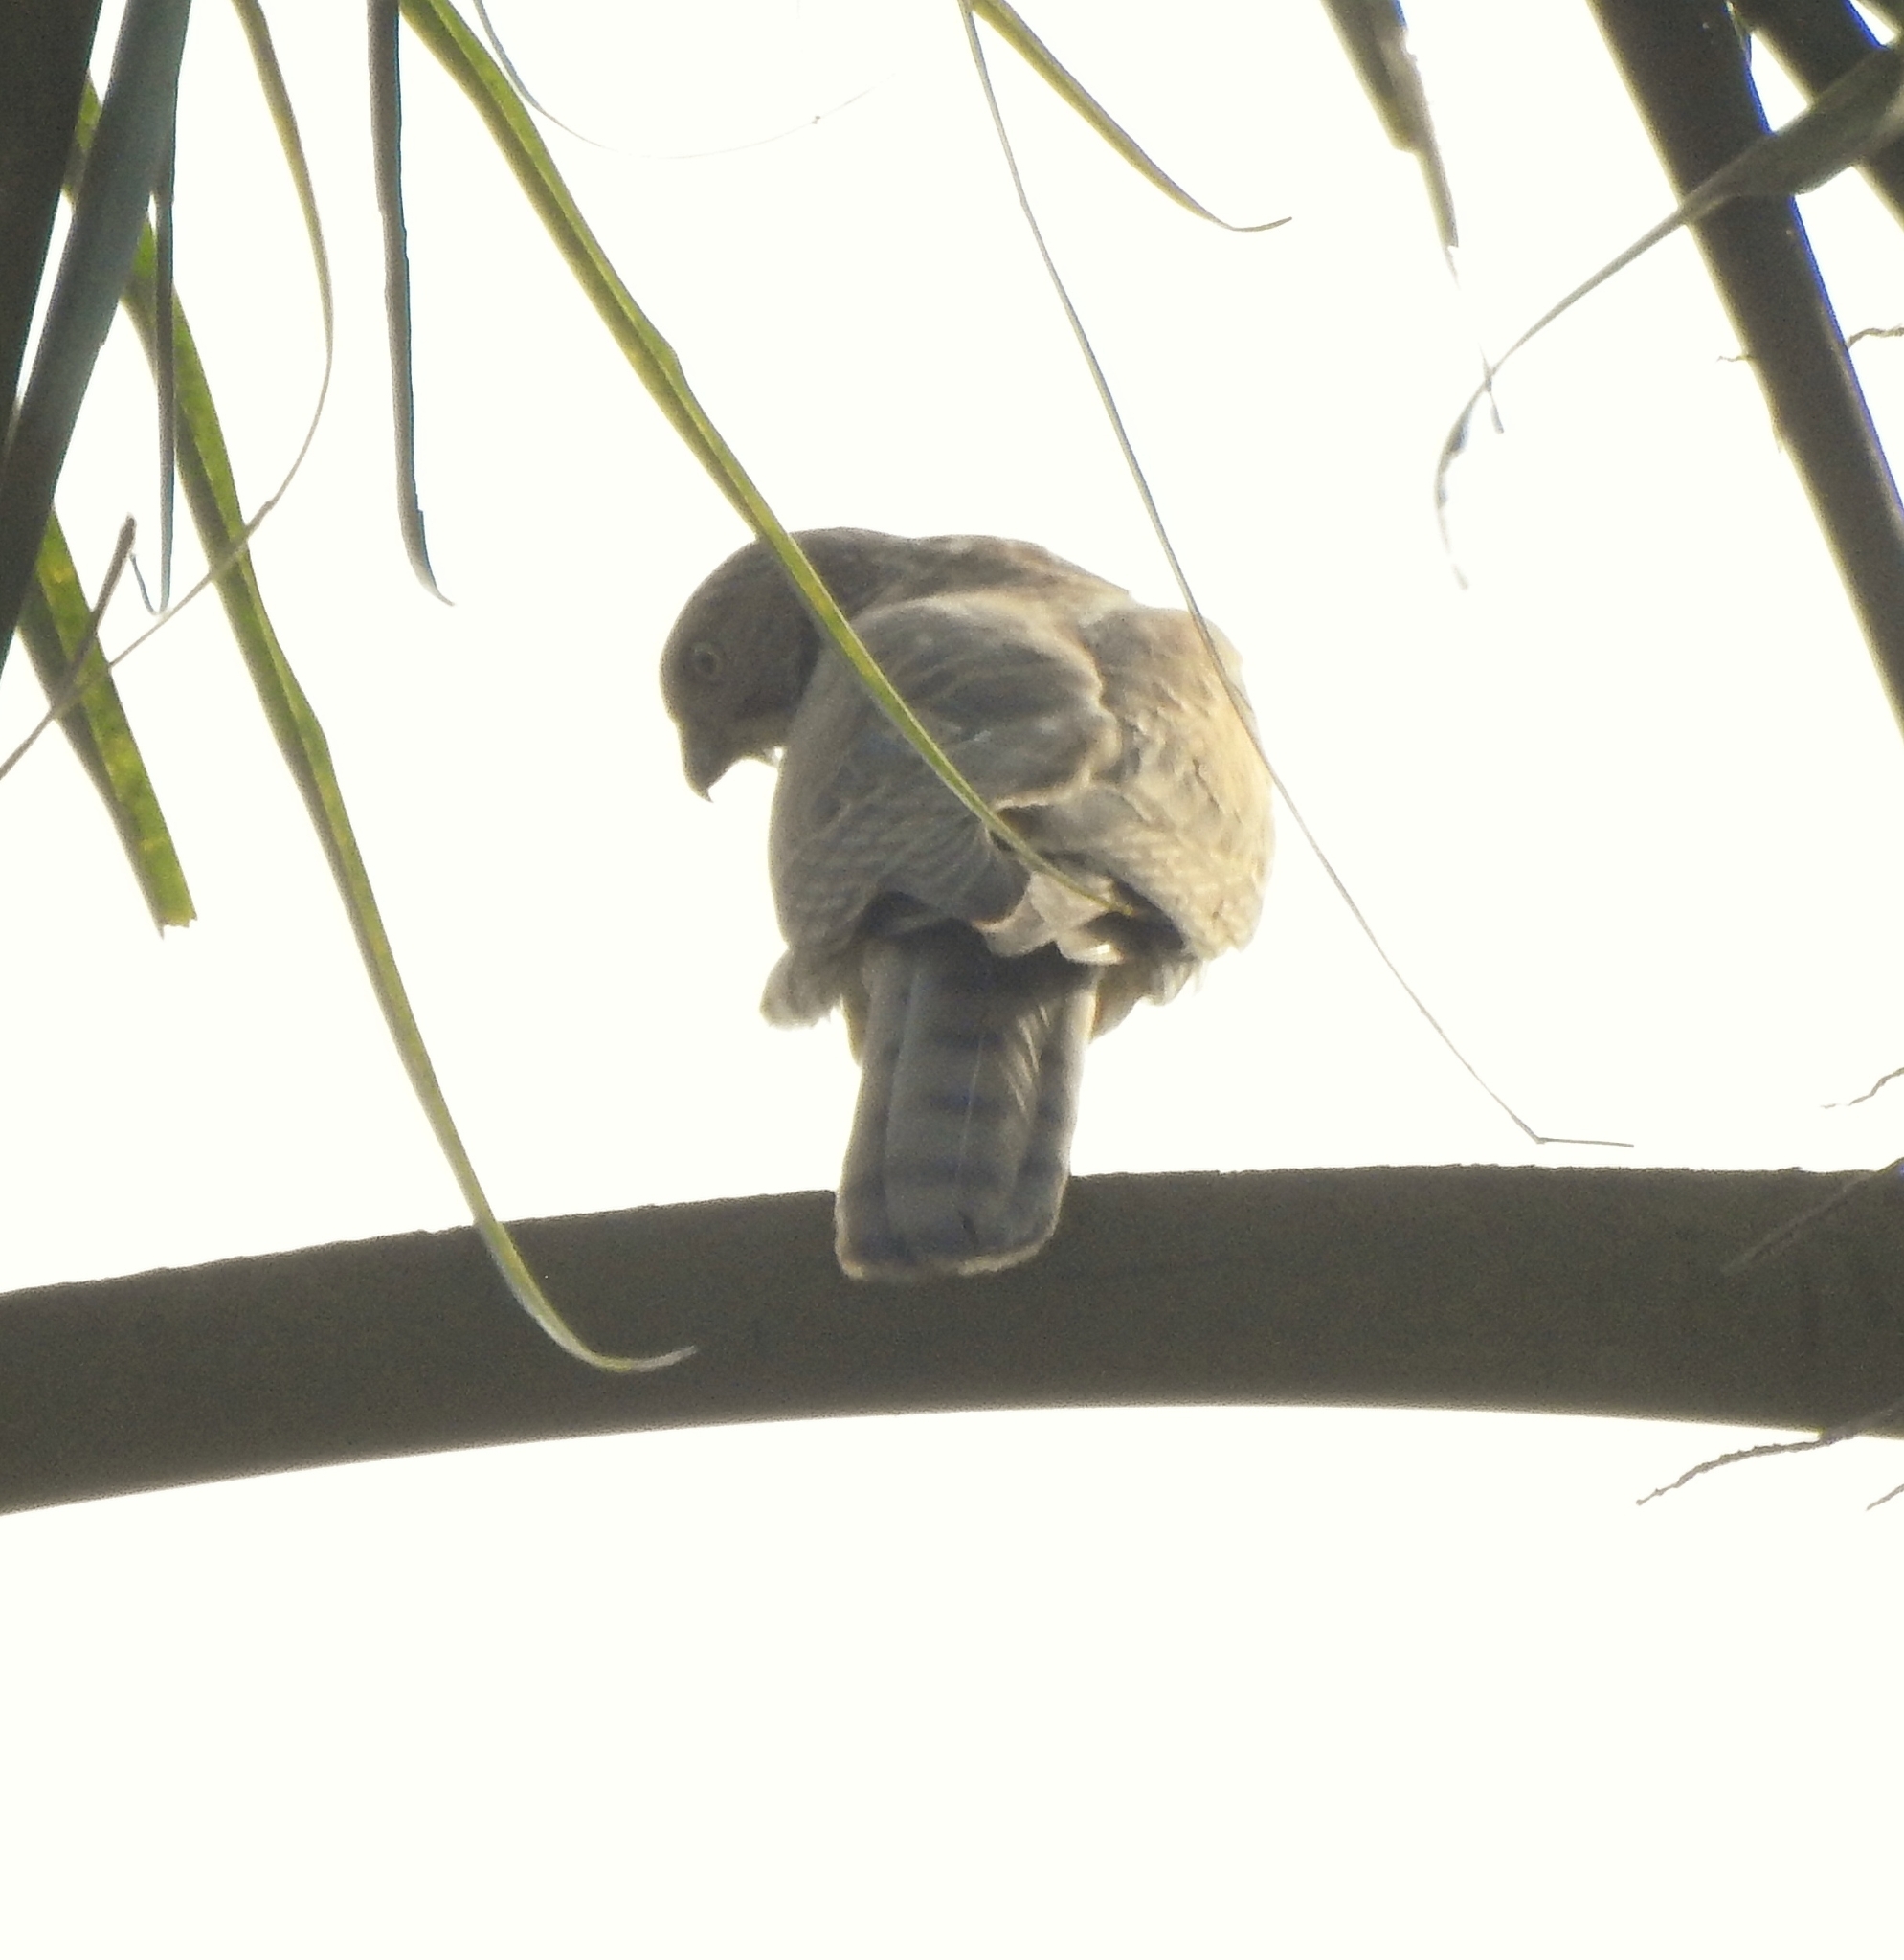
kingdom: Animalia
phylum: Chordata
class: Aves
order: Accipitriformes
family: Accipitridae
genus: Accipiter
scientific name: Accipiter badius
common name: Shikra
